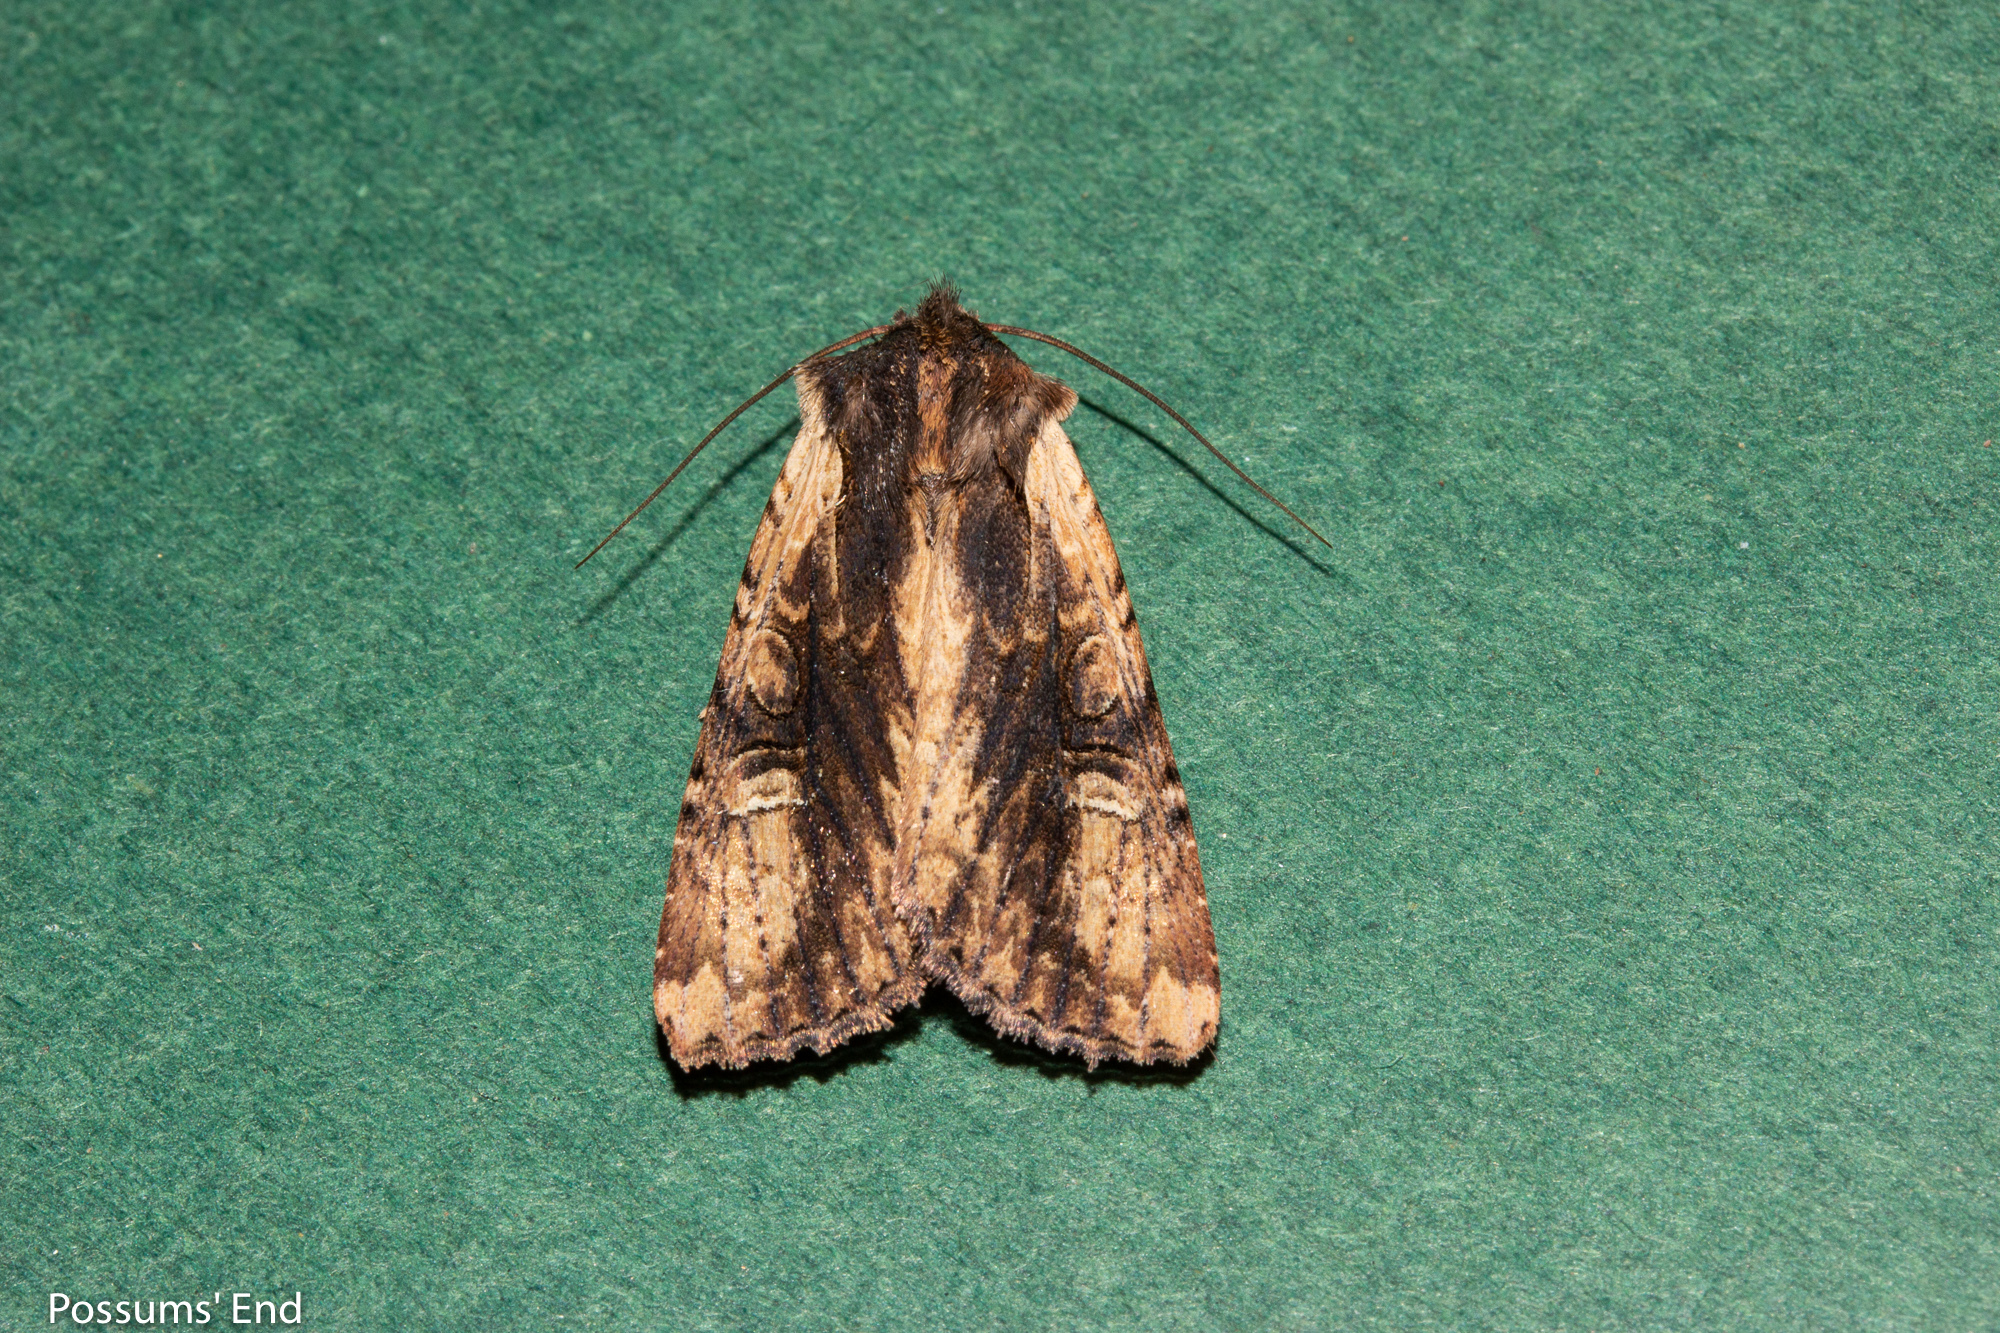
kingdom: Animalia
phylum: Arthropoda
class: Insecta
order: Lepidoptera
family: Noctuidae
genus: Ichneutica
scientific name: Ichneutica omoplaca
